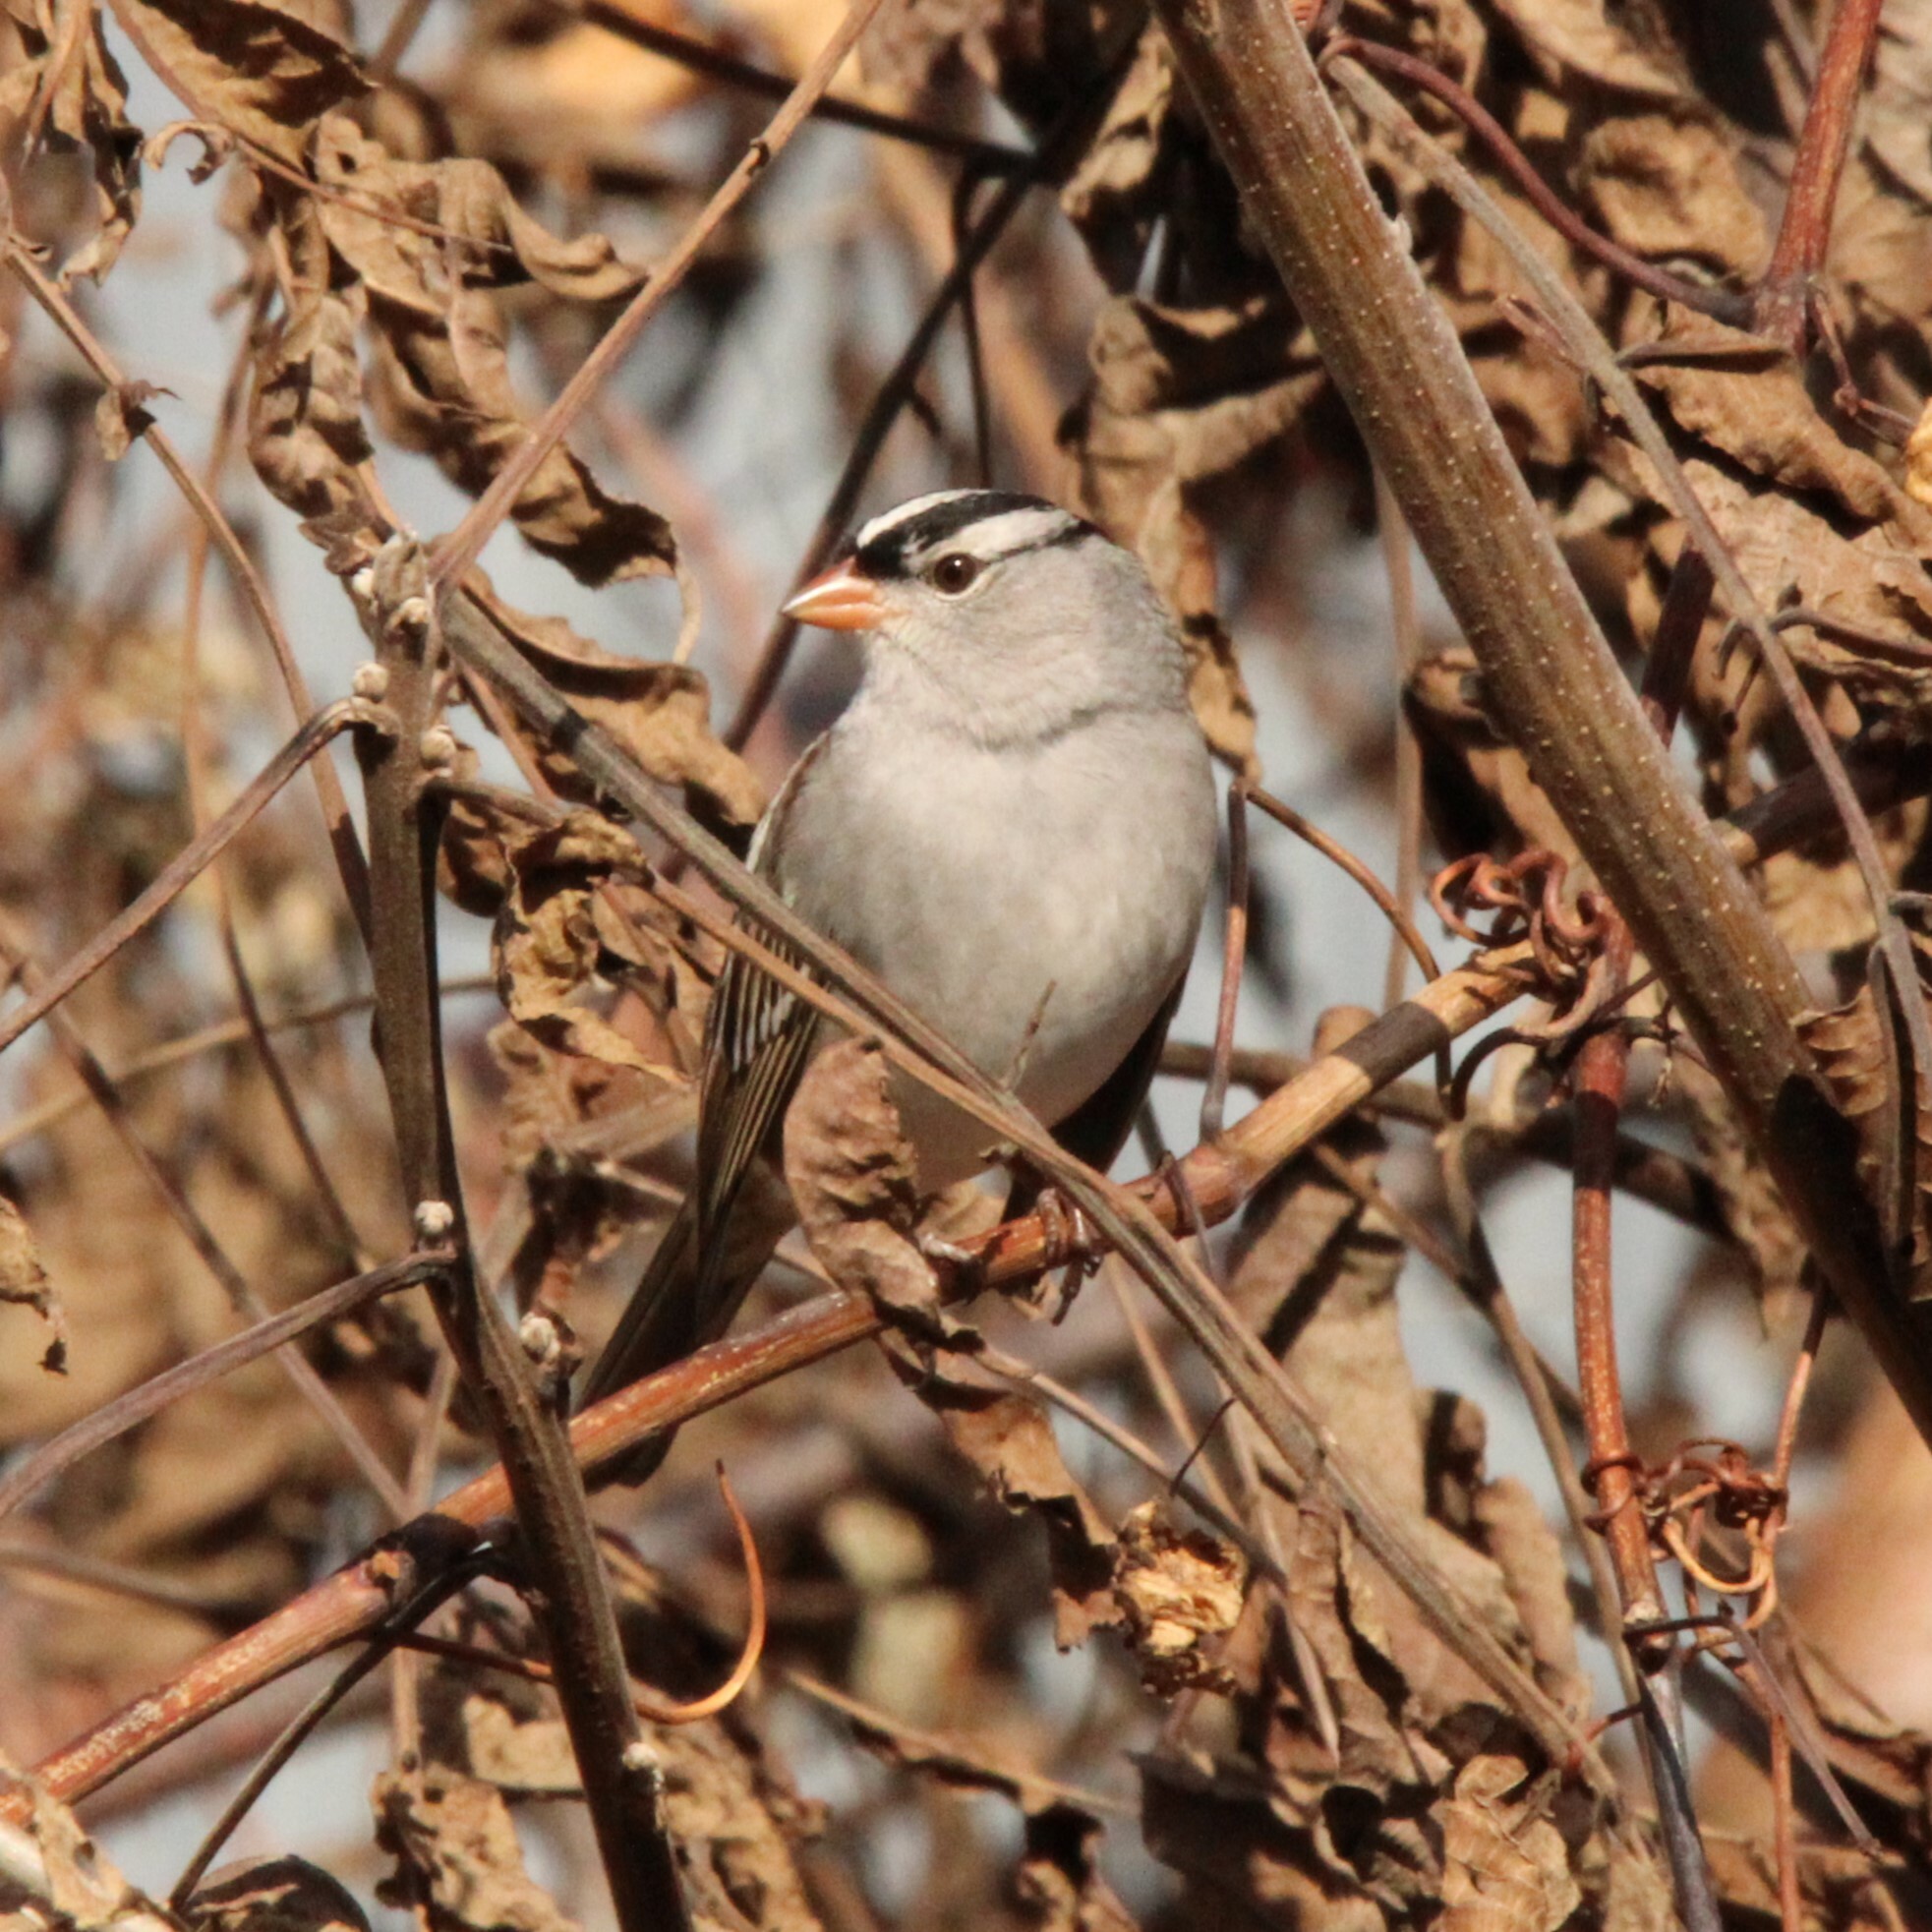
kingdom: Animalia
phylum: Chordata
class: Aves
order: Passeriformes
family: Passerellidae
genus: Zonotrichia
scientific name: Zonotrichia leucophrys
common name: White-crowned sparrow
